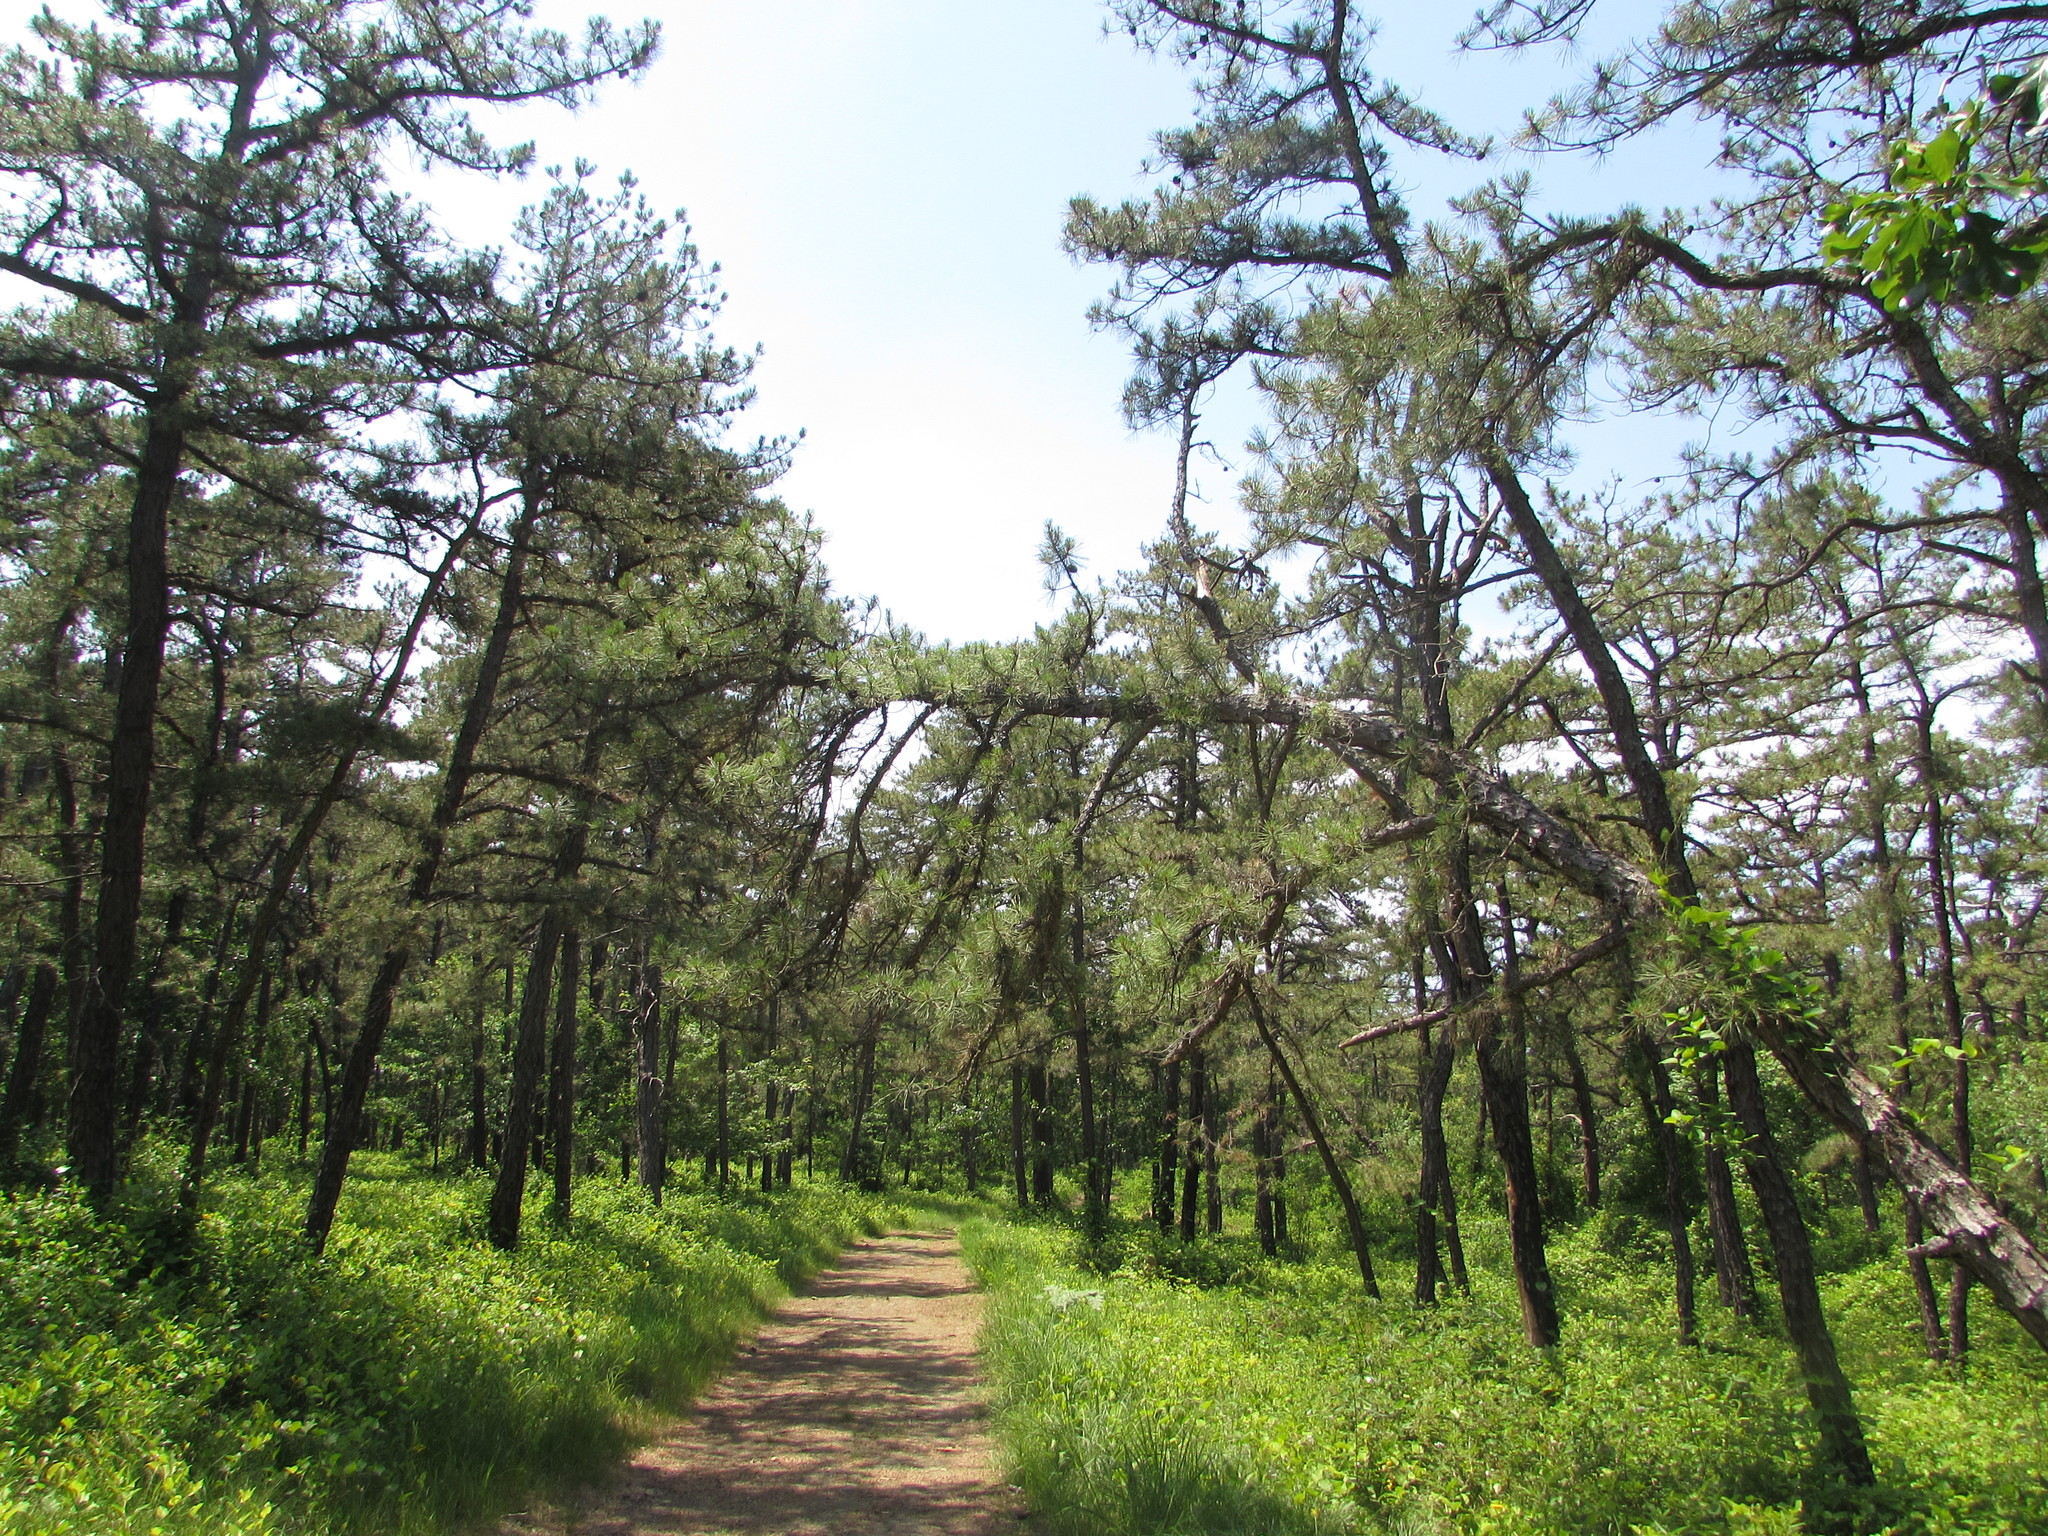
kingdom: Plantae
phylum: Tracheophyta
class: Pinopsida
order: Pinales
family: Pinaceae
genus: Pinus
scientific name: Pinus rigida
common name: Pitch pine
